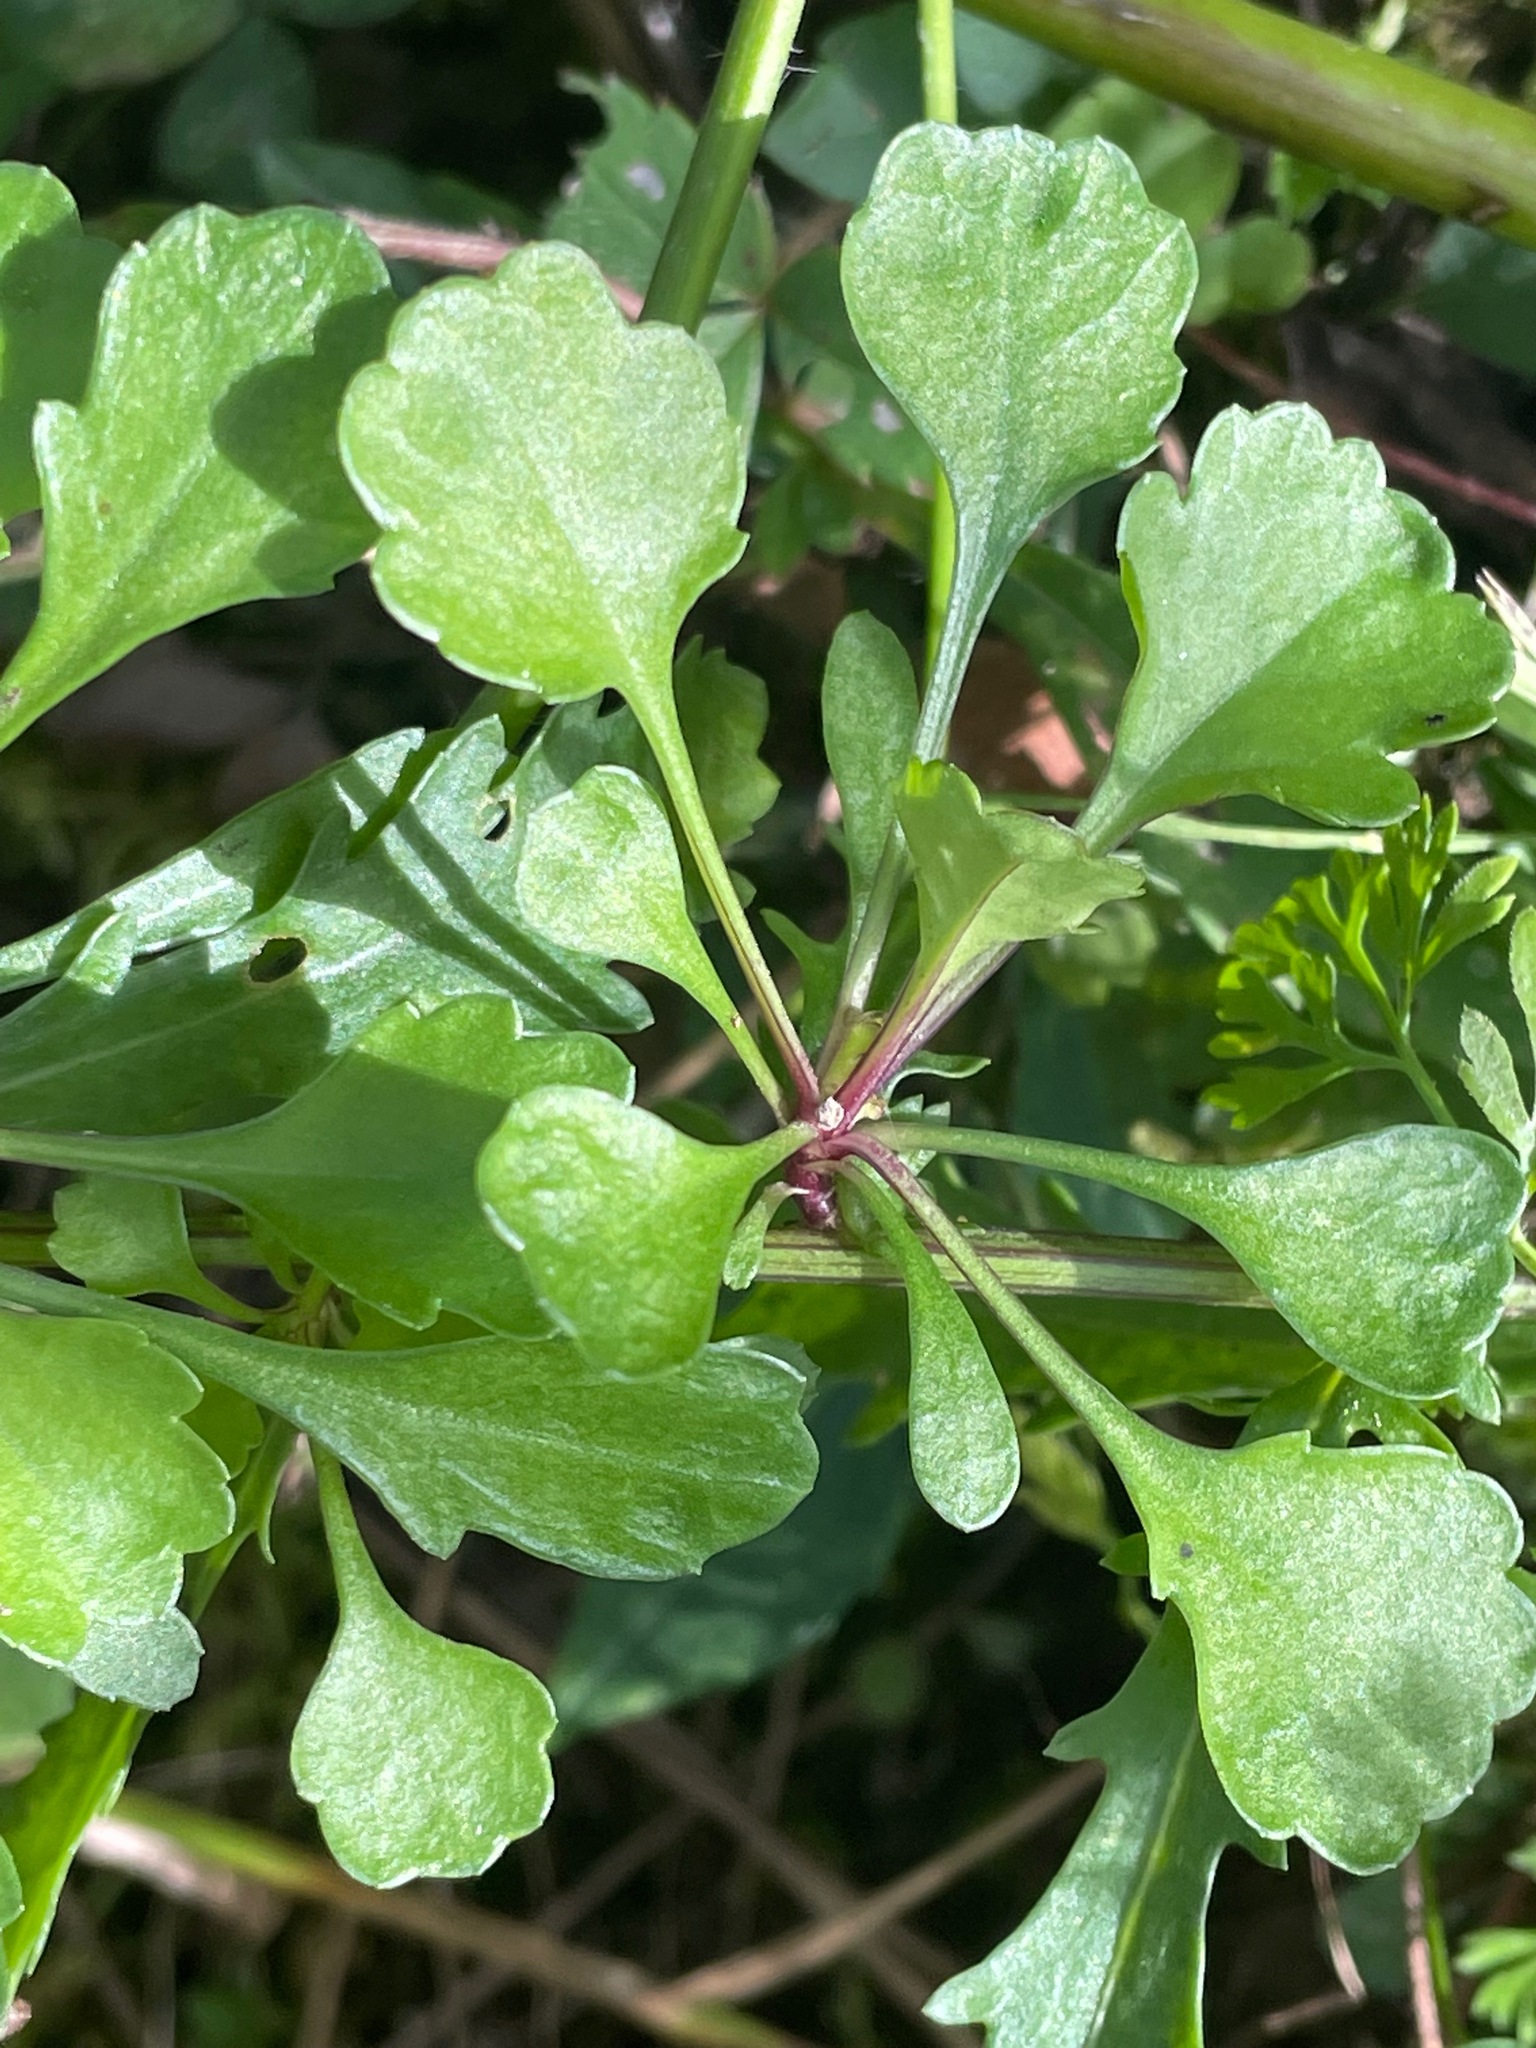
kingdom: Plantae
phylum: Tracheophyta
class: Magnoliopsida
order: Asterales
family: Asteraceae
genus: Leucanthemum
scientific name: Leucanthemum vulgare
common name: Oxeye daisy
